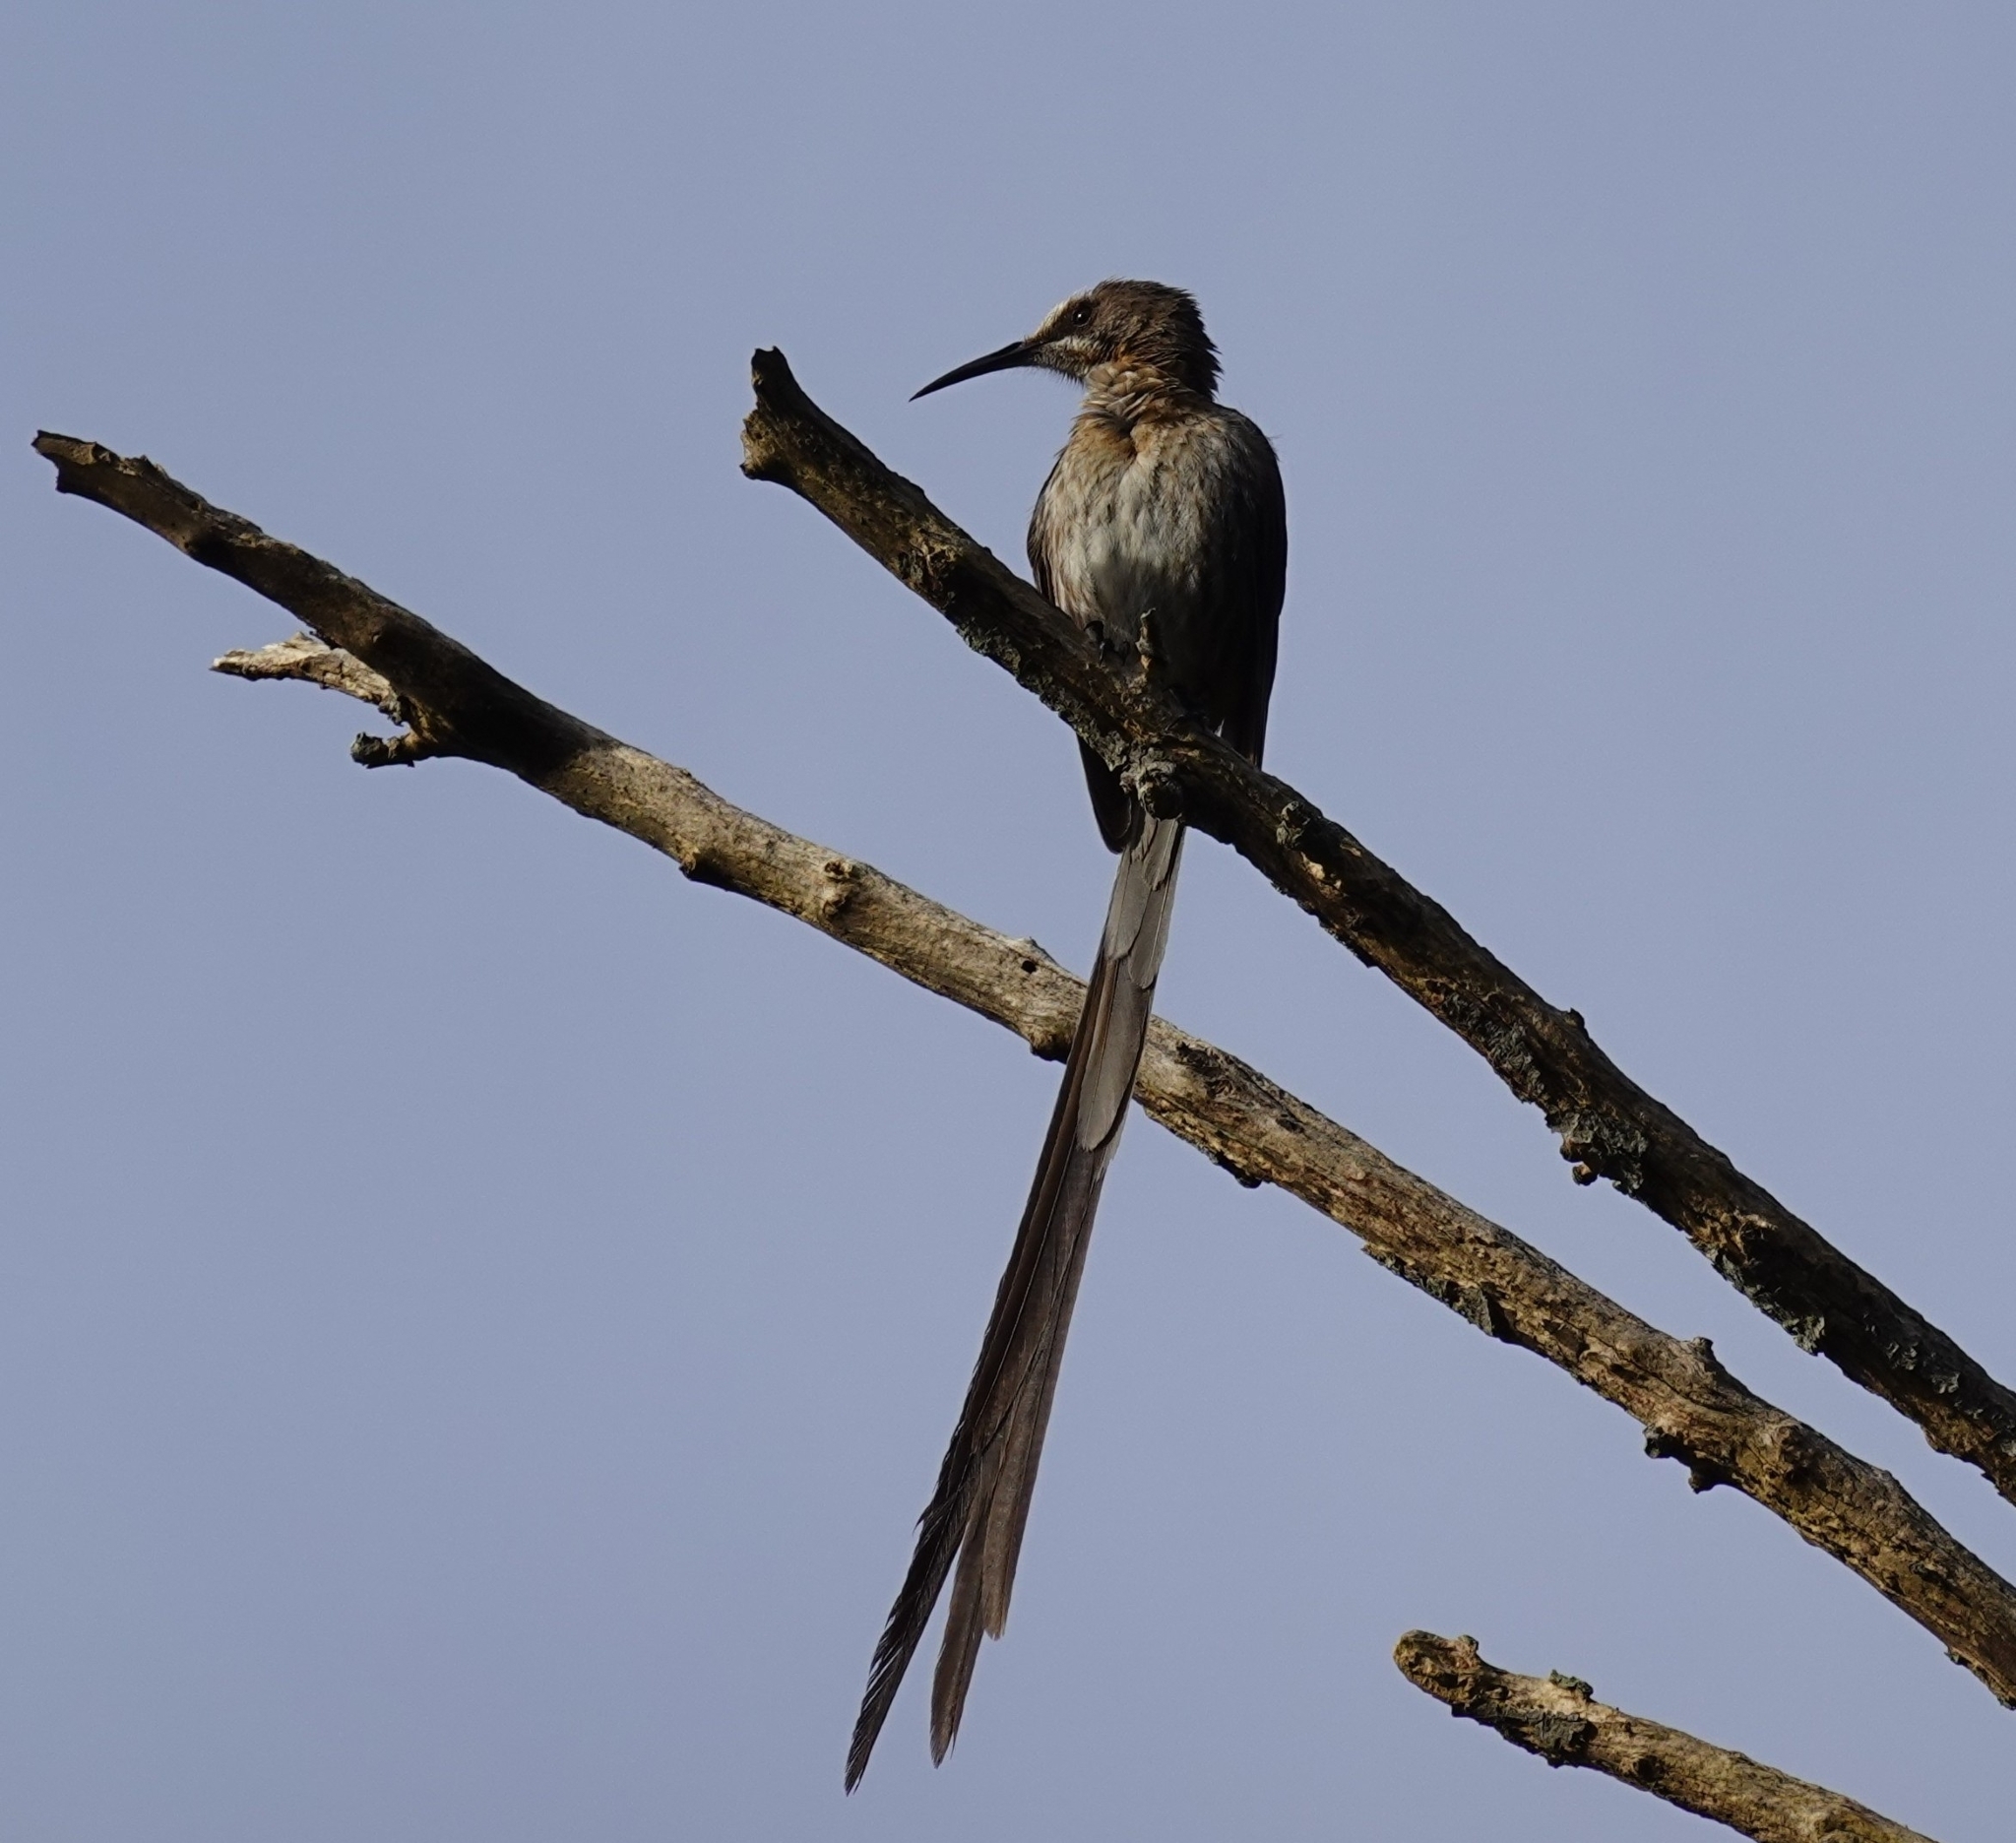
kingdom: Animalia
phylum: Chordata
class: Aves
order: Passeriformes
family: Promeropidae
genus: Promerops
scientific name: Promerops cafer
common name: Cape sugarbird
